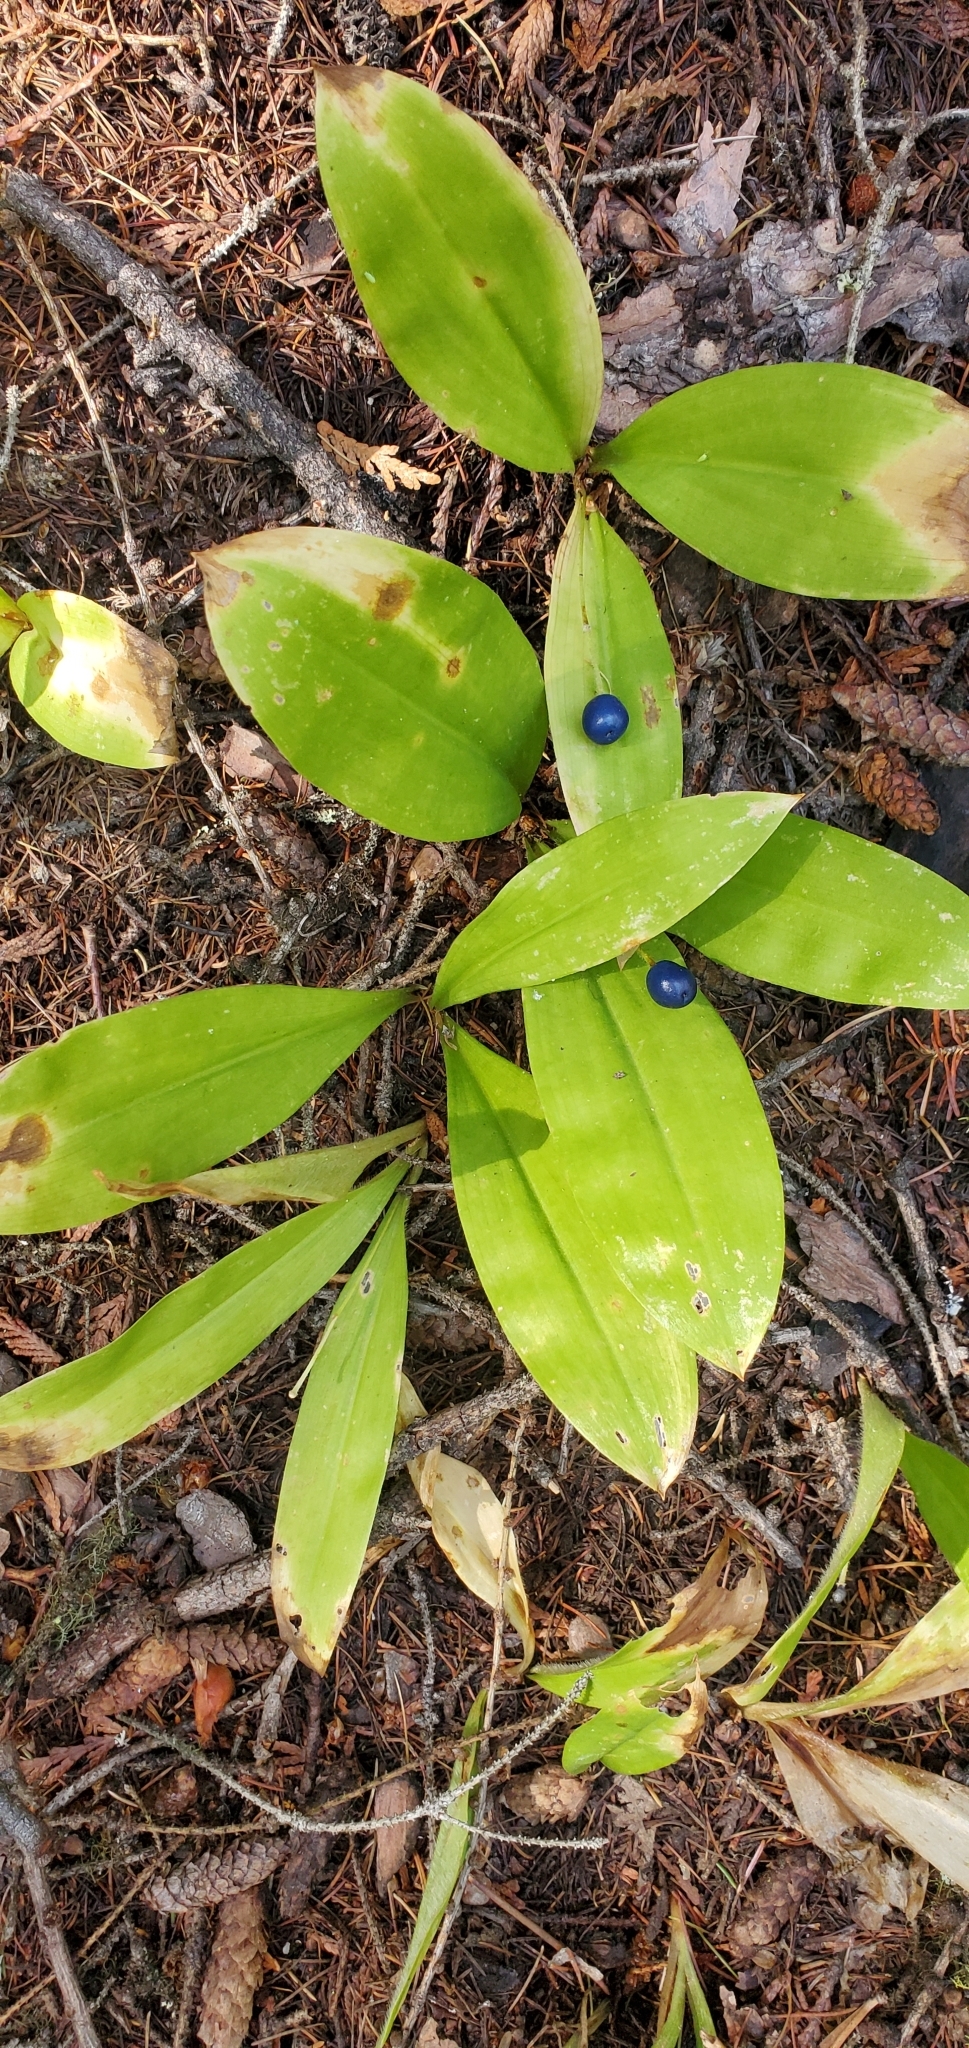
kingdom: Plantae
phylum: Tracheophyta
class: Liliopsida
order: Liliales
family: Liliaceae
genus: Clintonia
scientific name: Clintonia uniflora
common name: Queen's cup
